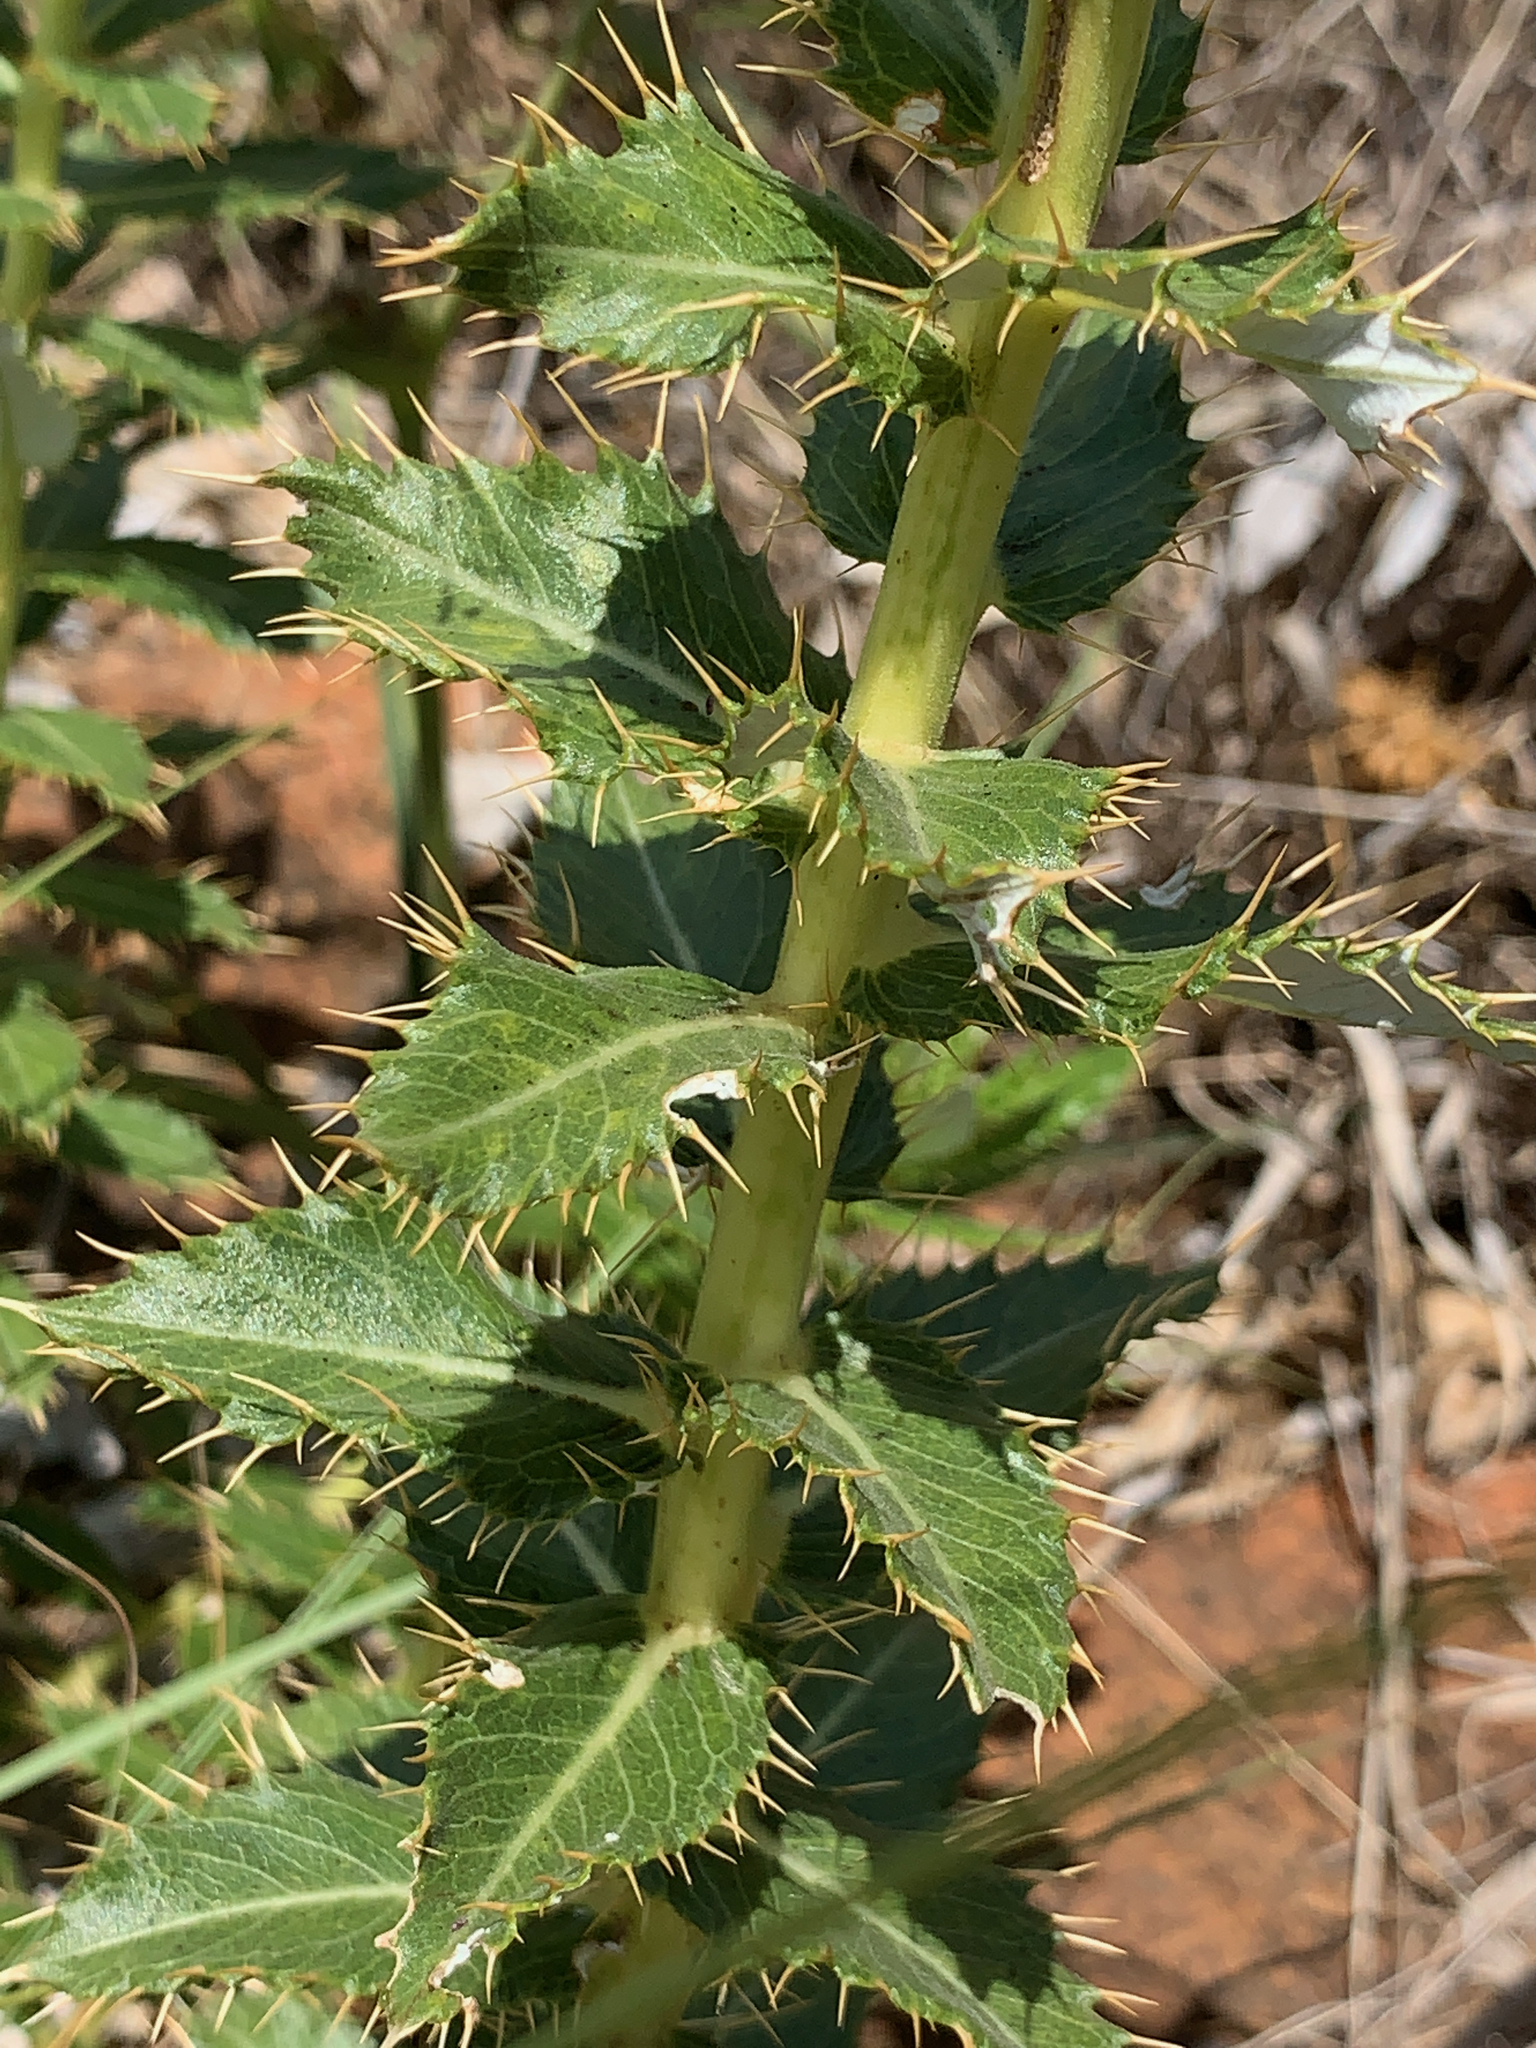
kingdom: Plantae
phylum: Tracheophyta
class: Magnoliopsida
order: Asterales
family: Asteraceae
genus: Berkheya
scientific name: Berkheya seminivea
